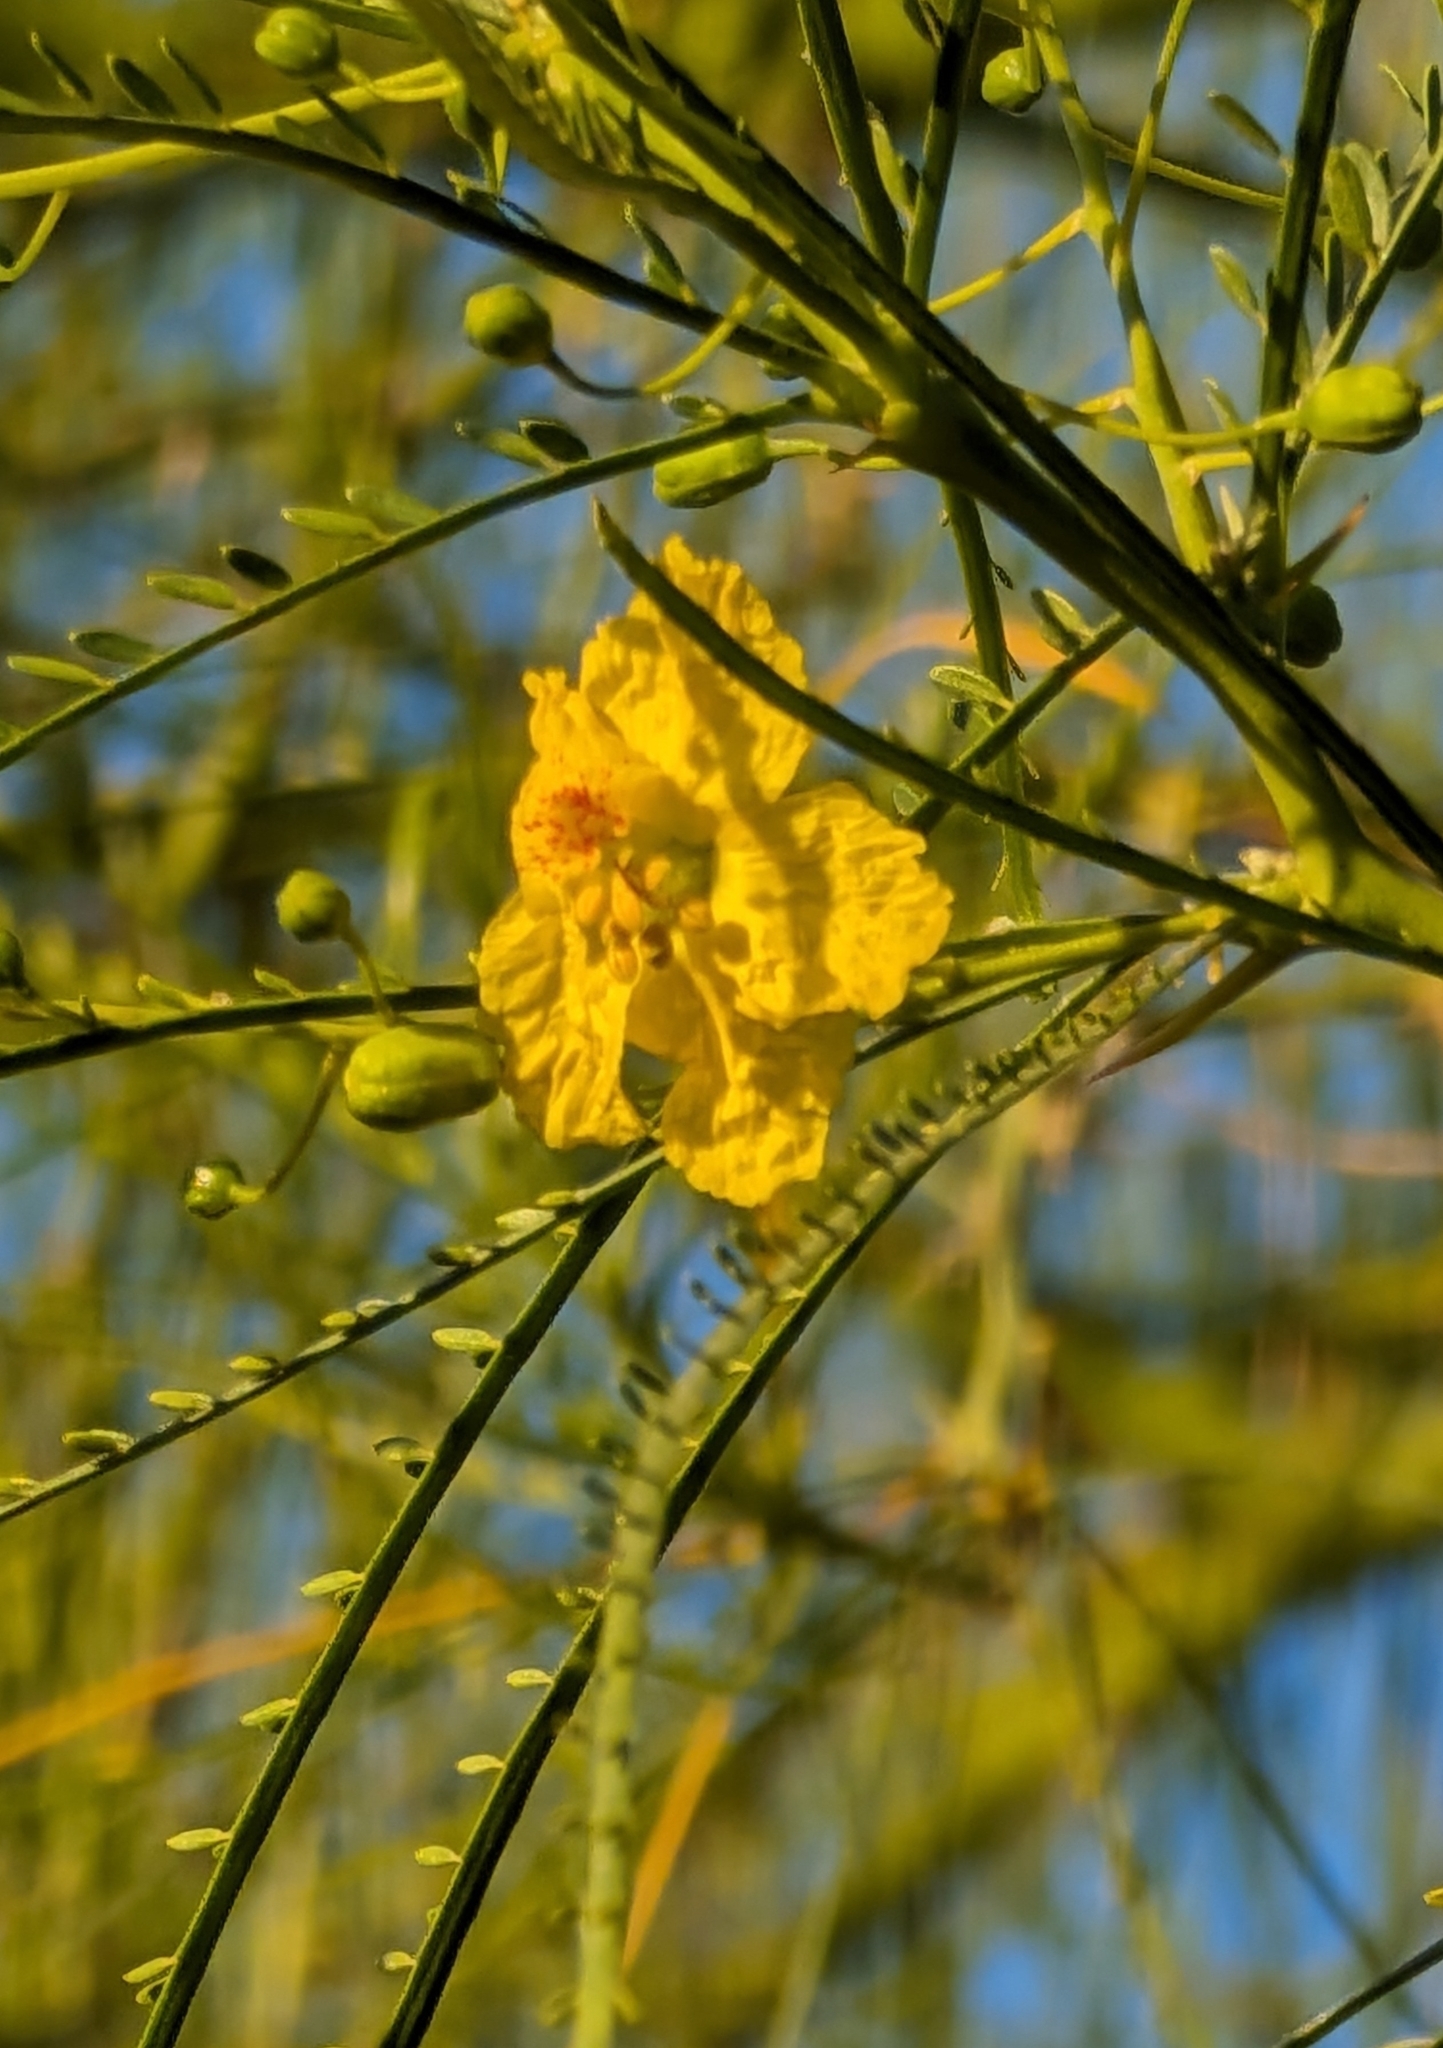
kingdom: Plantae
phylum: Tracheophyta
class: Magnoliopsida
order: Fabales
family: Fabaceae
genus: Parkinsonia
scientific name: Parkinsonia aculeata
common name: Jerusalem thorn
